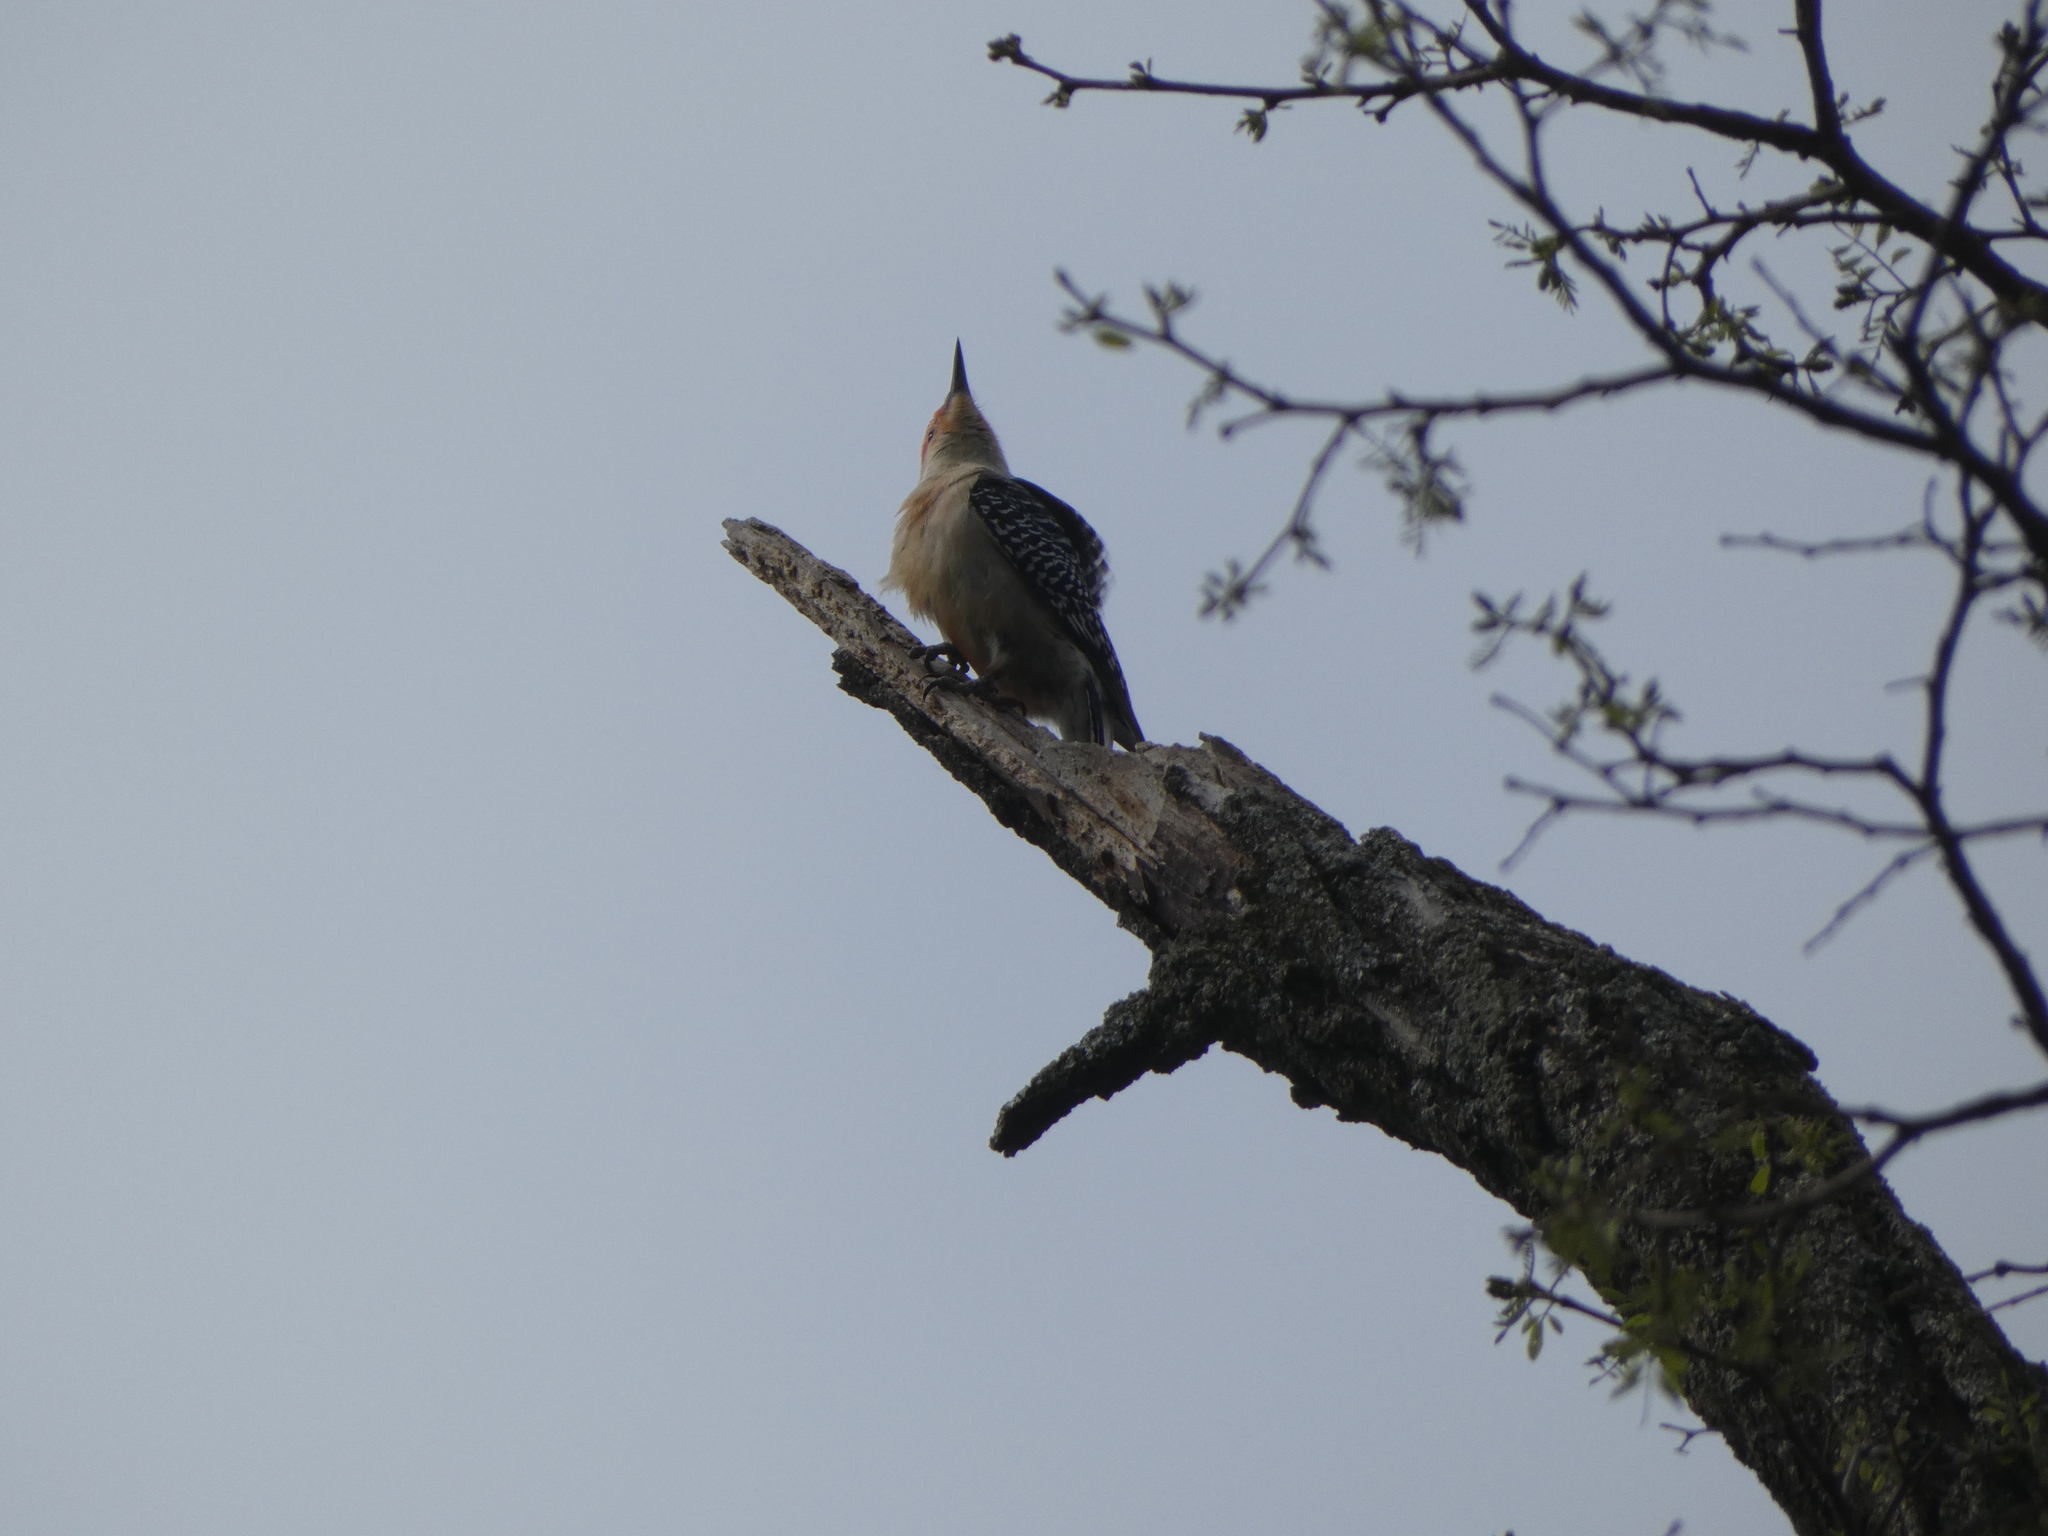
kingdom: Animalia
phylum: Chordata
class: Aves
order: Piciformes
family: Picidae
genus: Melanerpes
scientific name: Melanerpes carolinus
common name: Red-bellied woodpecker
